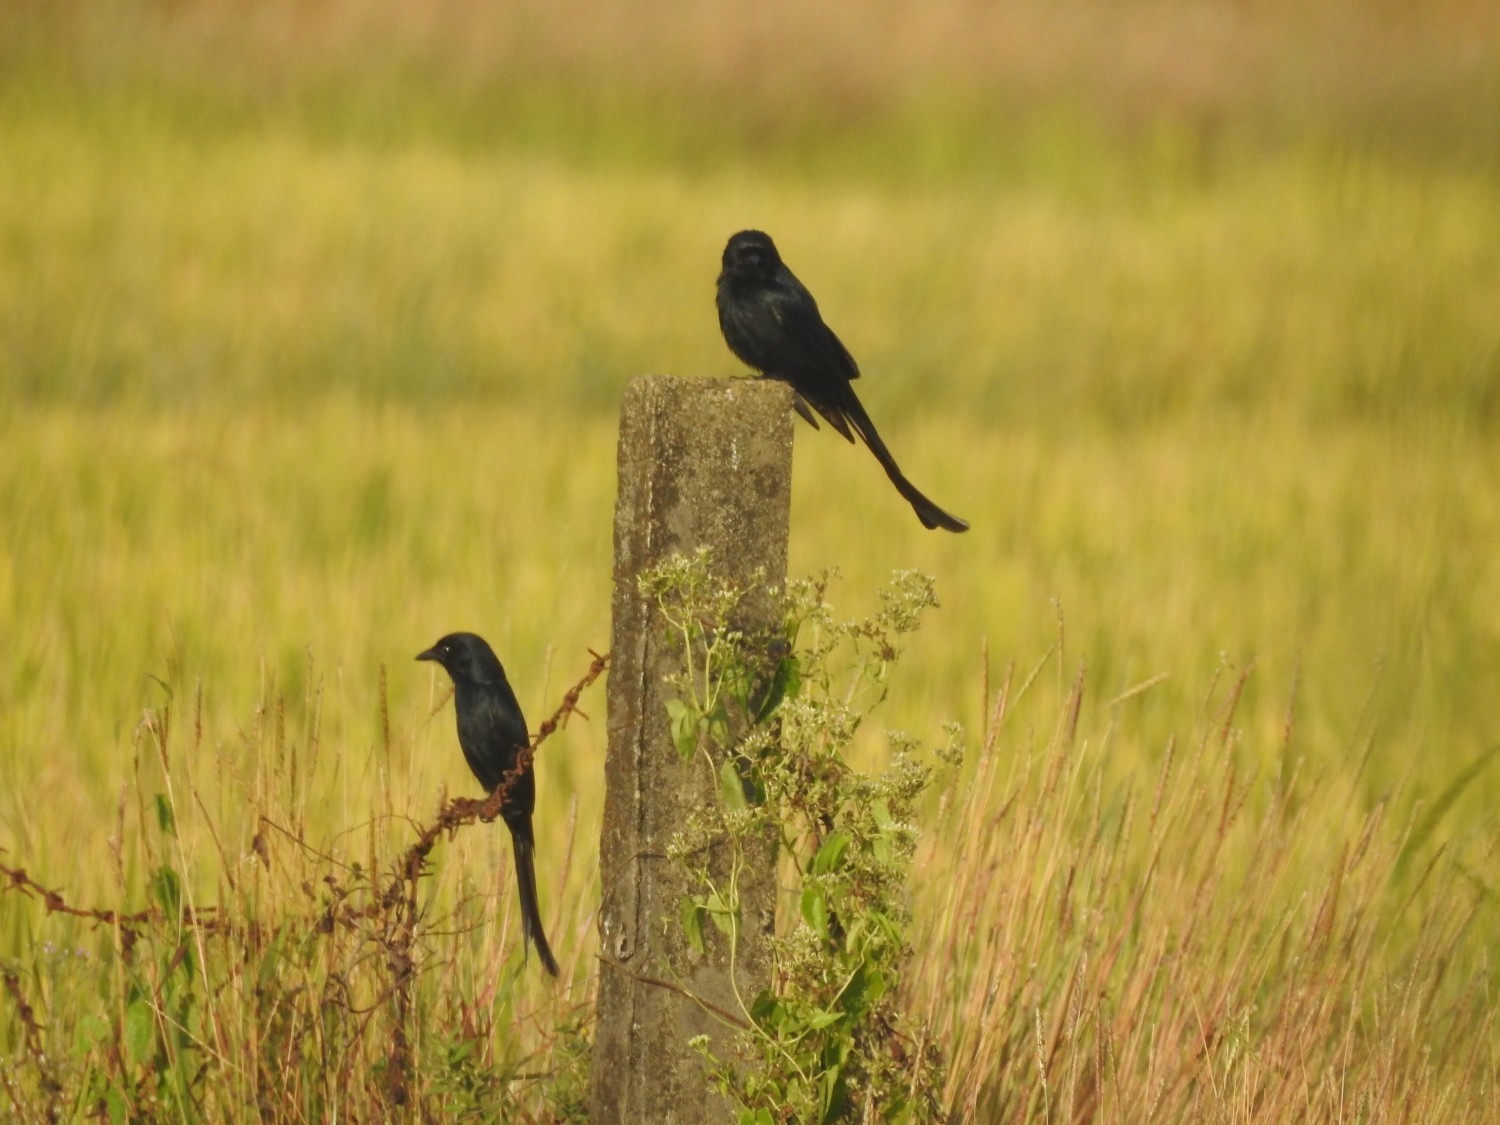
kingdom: Animalia
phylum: Chordata
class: Aves
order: Passeriformes
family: Dicruridae
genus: Dicrurus
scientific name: Dicrurus macrocercus
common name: Black drongo
